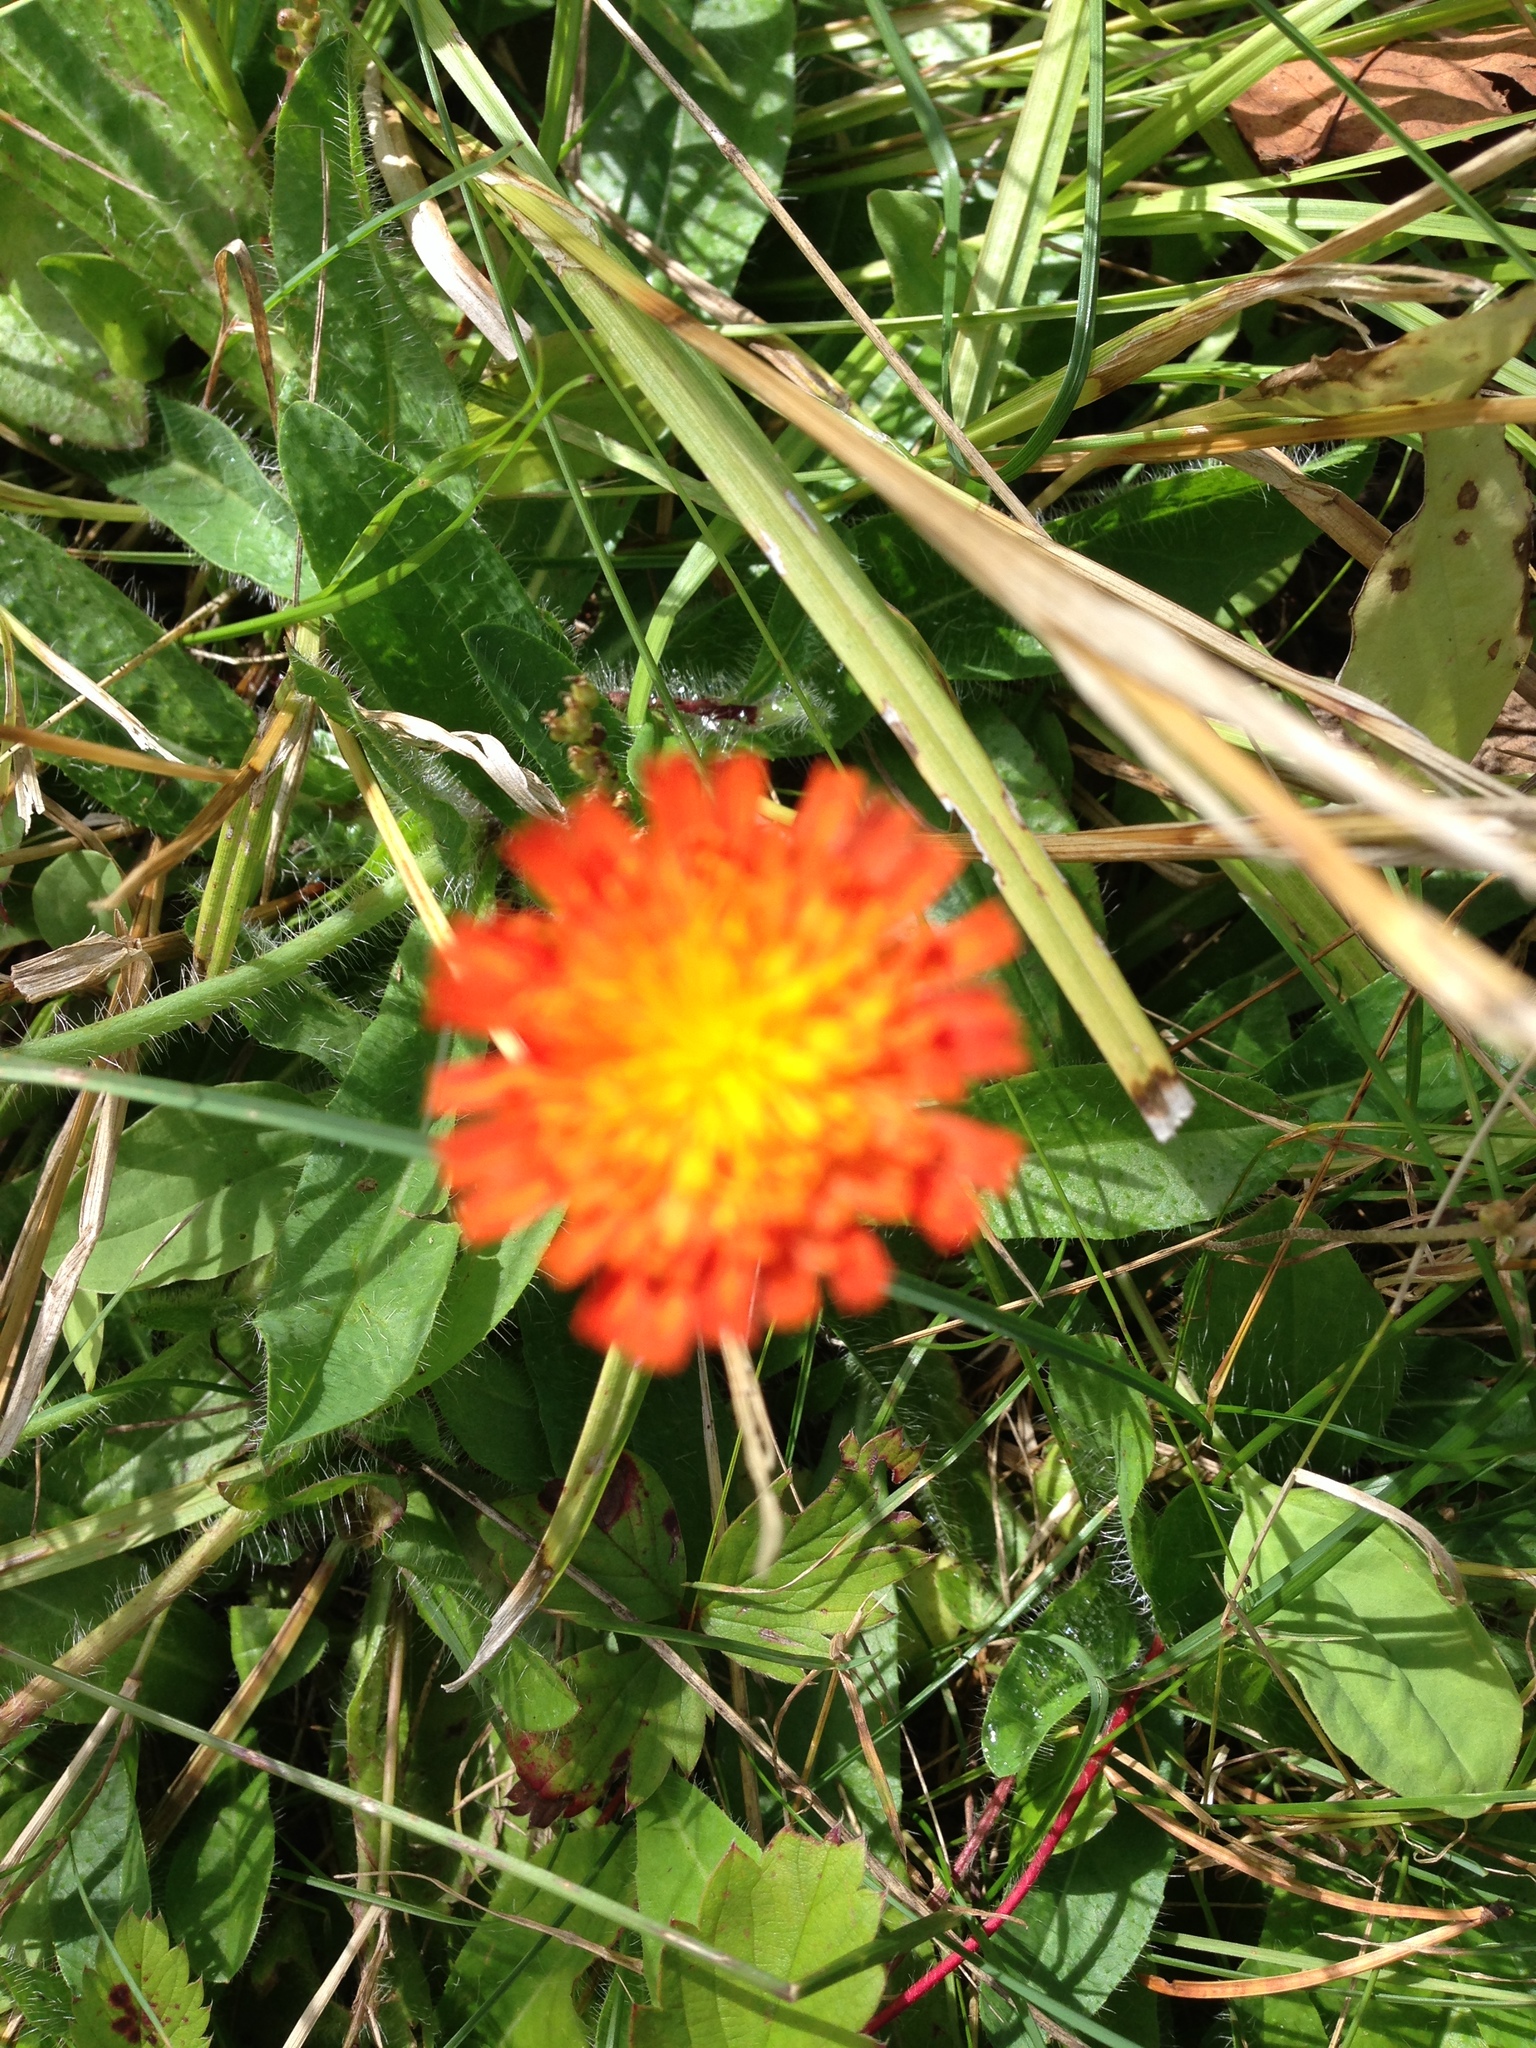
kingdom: Plantae
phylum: Tracheophyta
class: Magnoliopsida
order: Asterales
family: Asteraceae
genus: Pilosella
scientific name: Pilosella aurantiaca
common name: Fox-and-cubs
